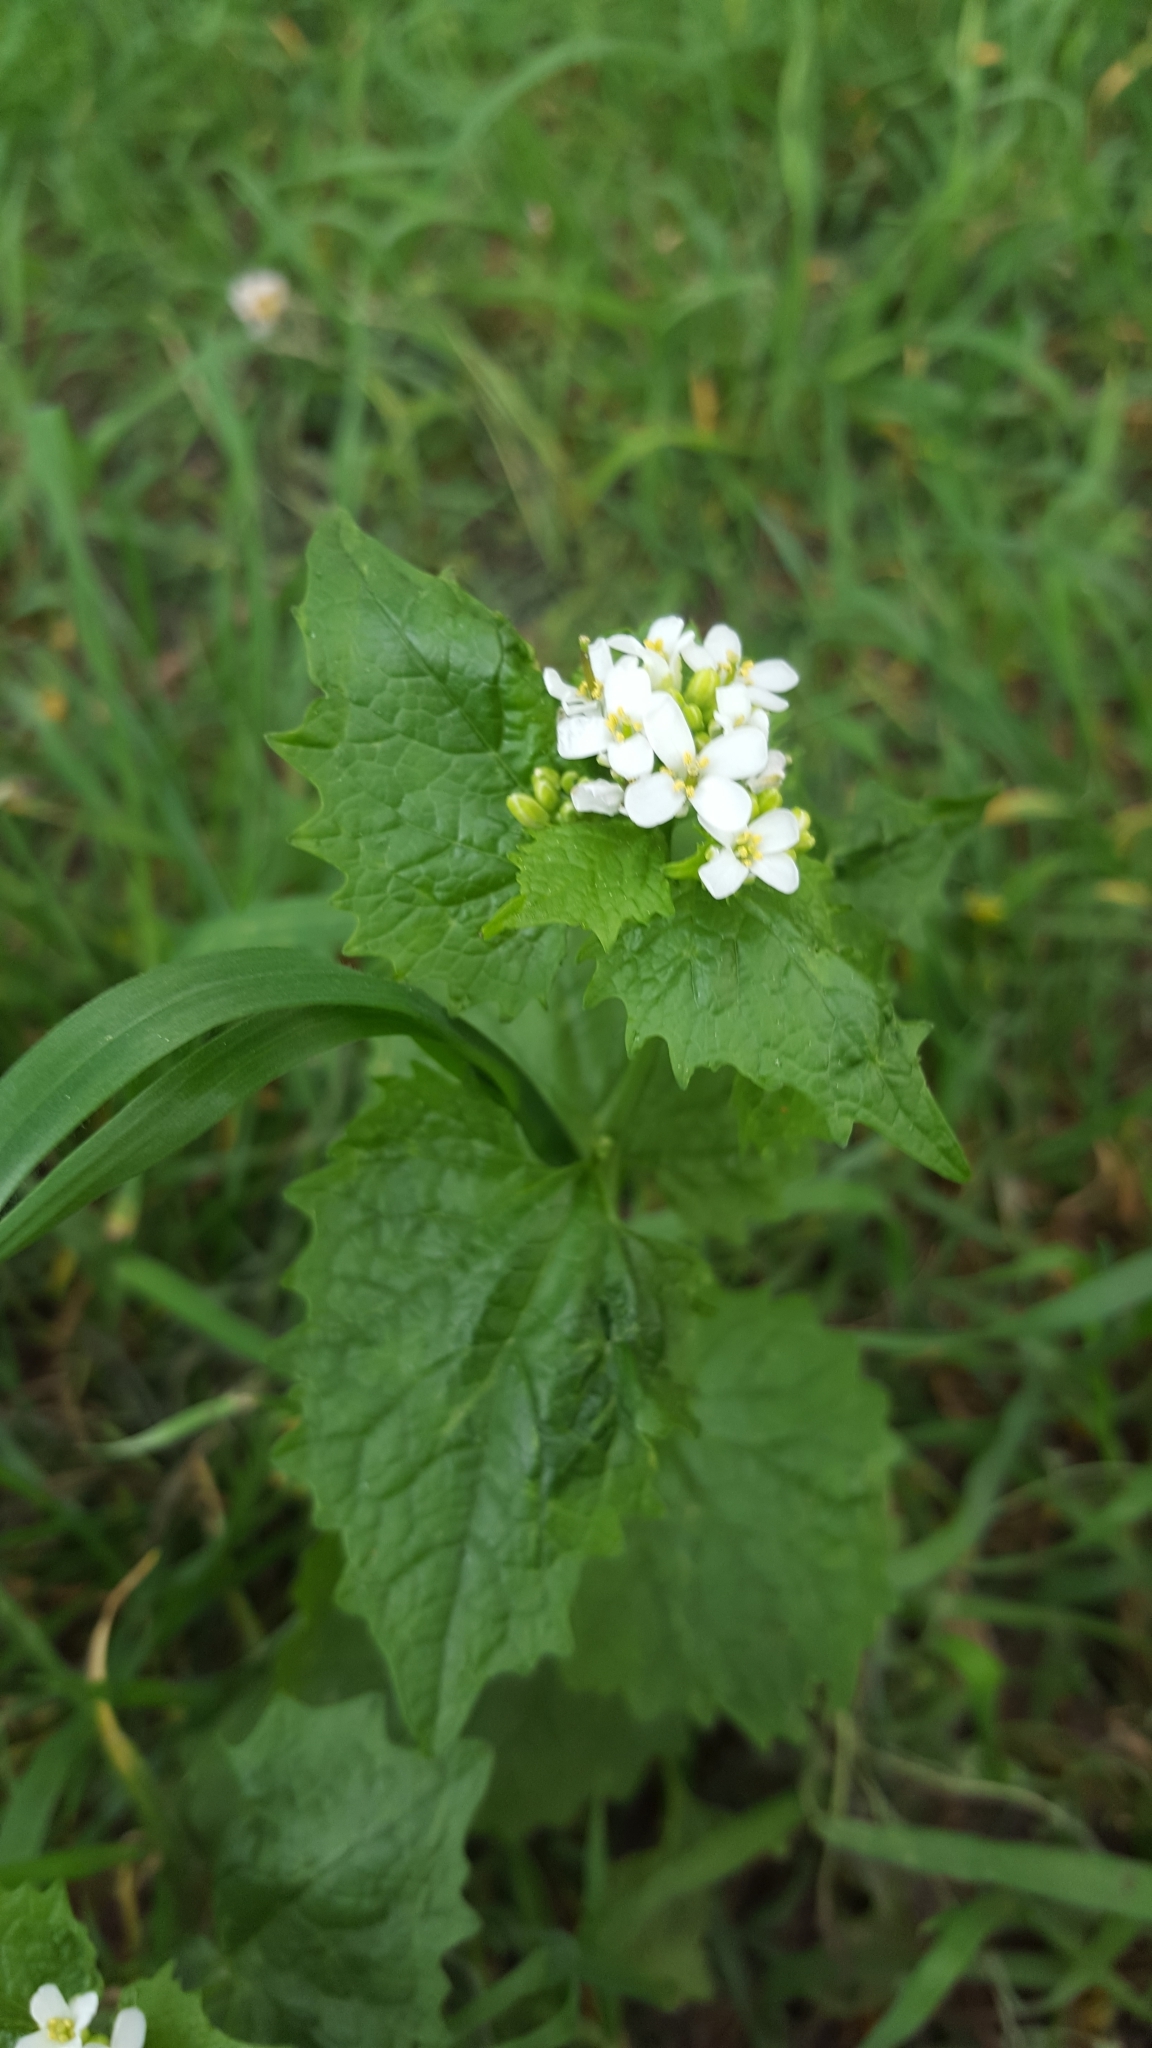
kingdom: Plantae
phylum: Tracheophyta
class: Magnoliopsida
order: Brassicales
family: Brassicaceae
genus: Alliaria
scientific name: Alliaria petiolata
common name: Garlic mustard
